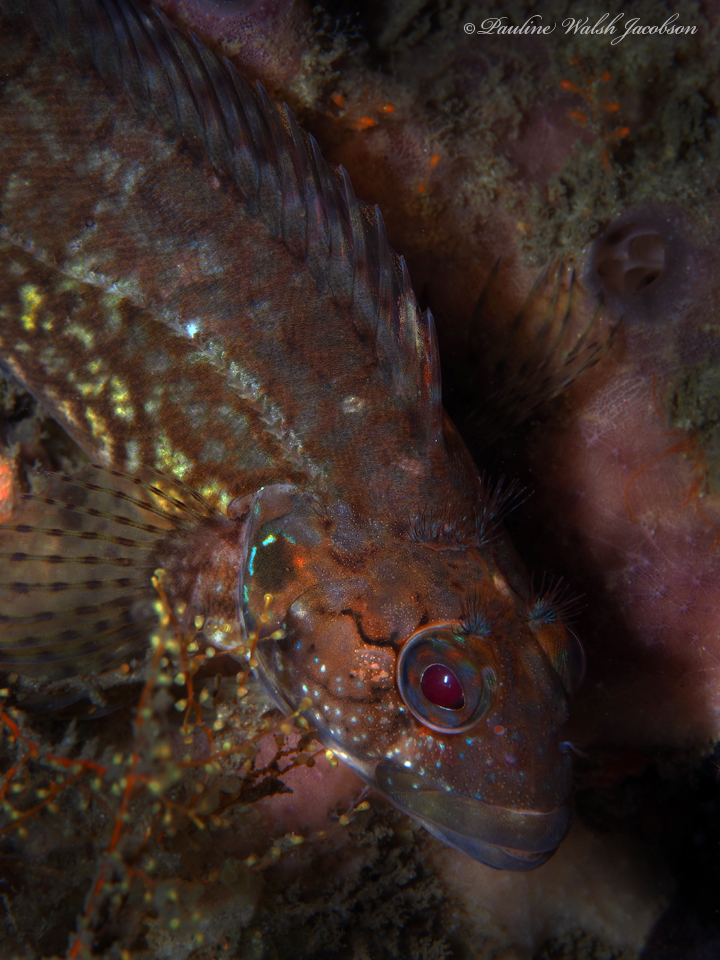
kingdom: Animalia
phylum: Chordata
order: Perciformes
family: Labrisomidae
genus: Labrisomus
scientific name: Labrisomus conditus
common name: Masquerader hairy blenny
